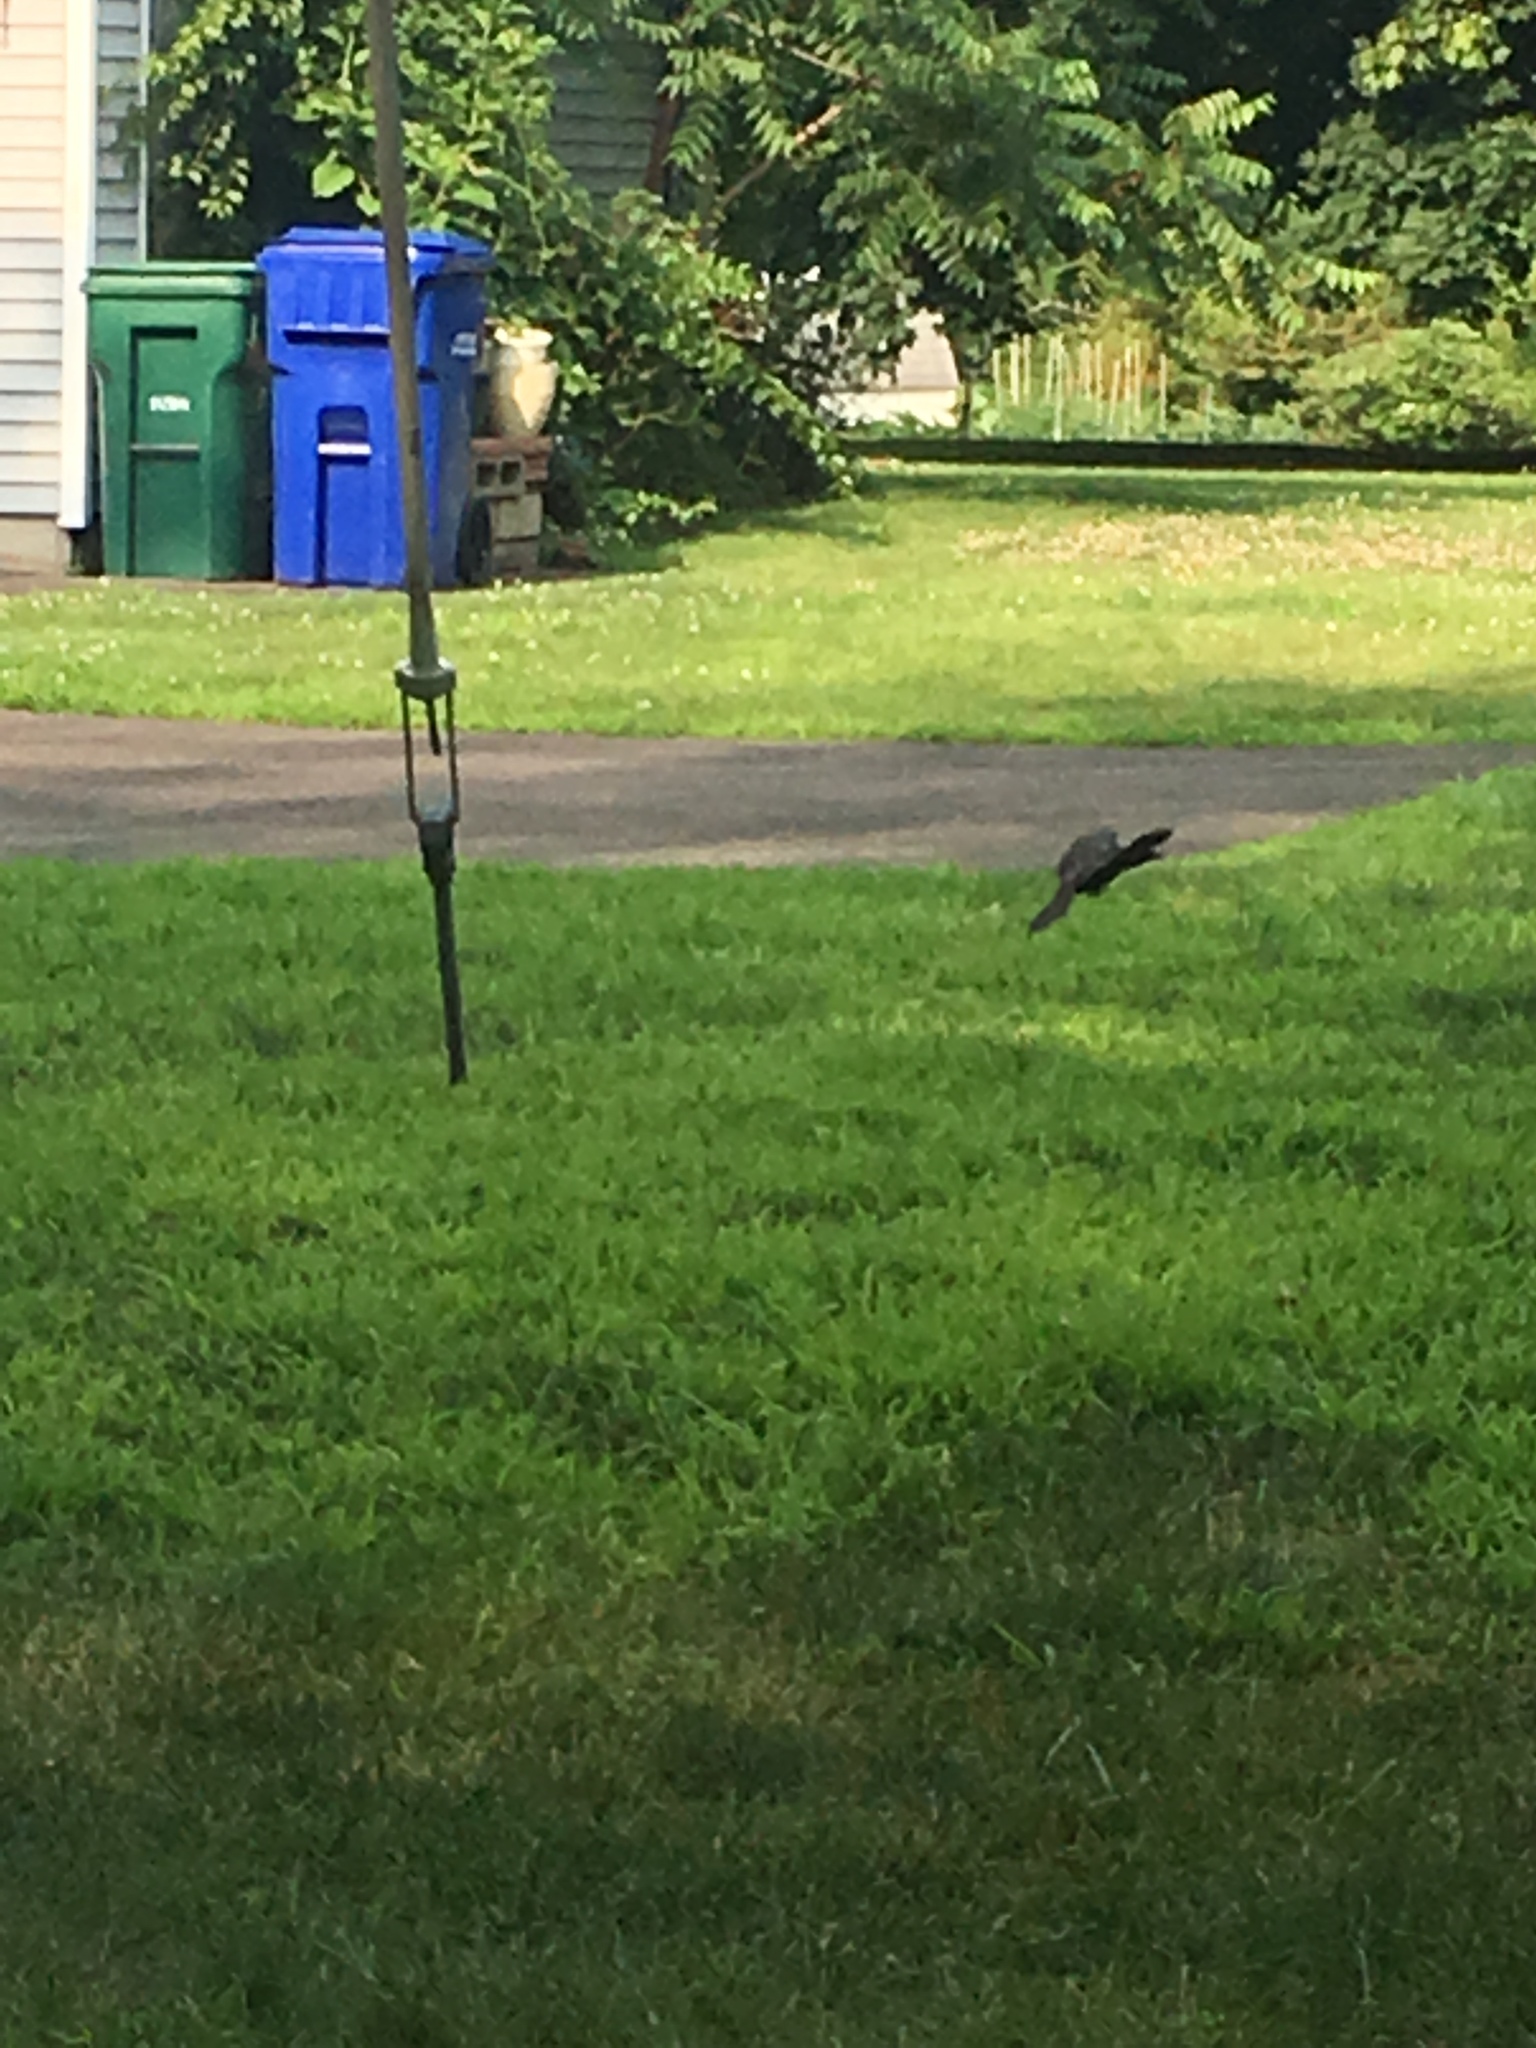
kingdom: Animalia
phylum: Chordata
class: Aves
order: Passeriformes
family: Icteridae
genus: Quiscalus
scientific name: Quiscalus quiscula
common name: Common grackle
